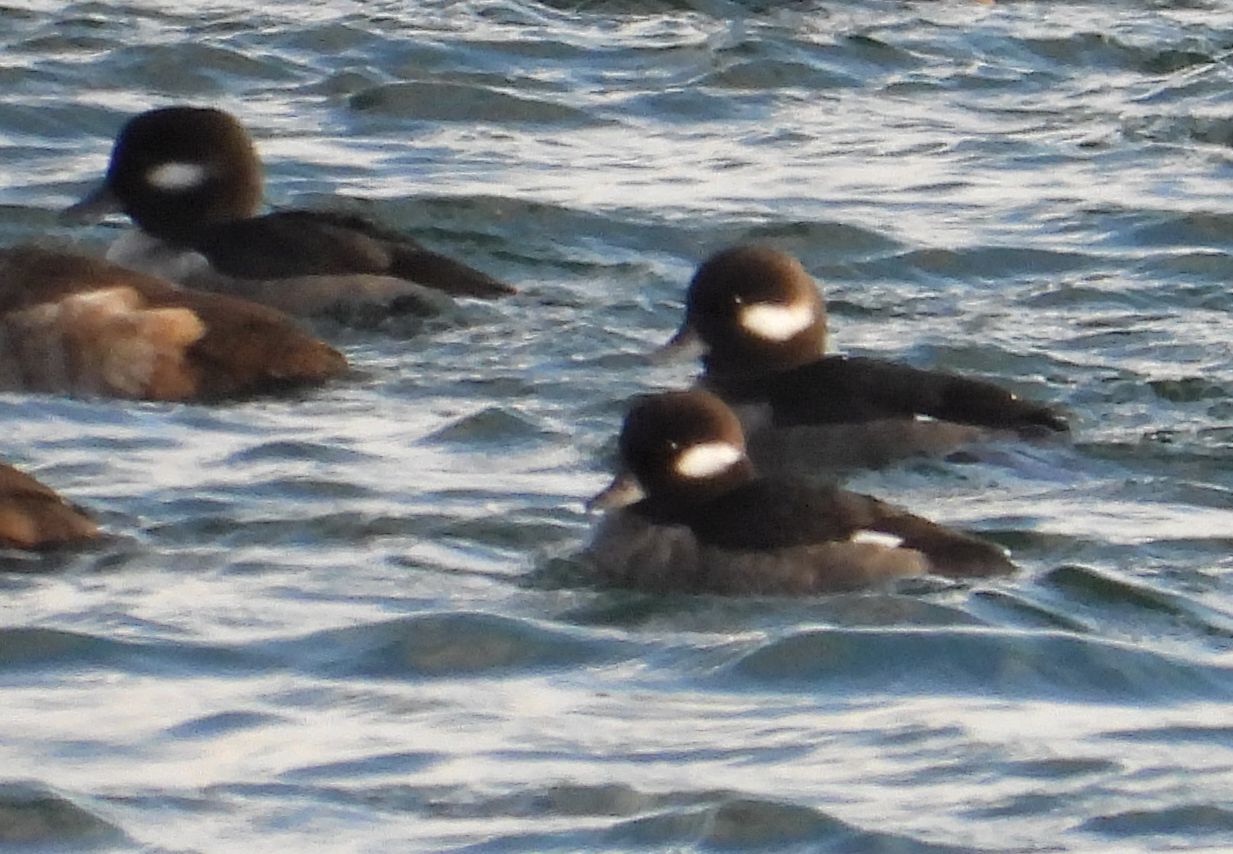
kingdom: Animalia
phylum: Chordata
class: Aves
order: Anseriformes
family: Anatidae
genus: Bucephala
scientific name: Bucephala albeola
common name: Bufflehead
